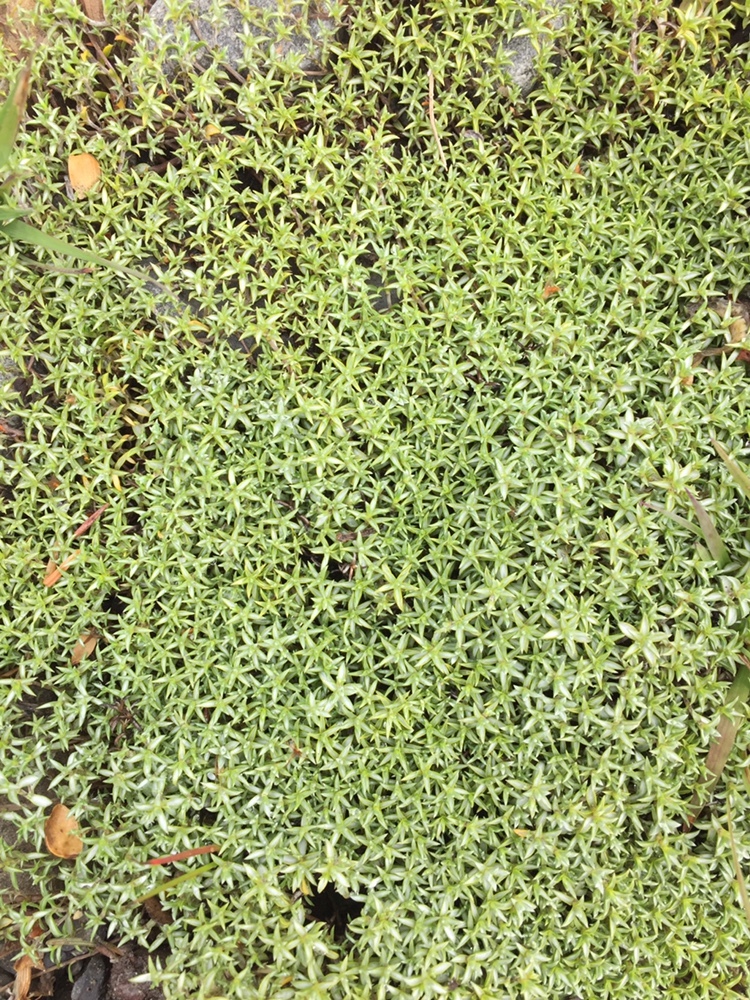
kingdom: Plantae
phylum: Tracheophyta
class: Magnoliopsida
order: Asterales
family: Asteraceae
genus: Raoulia
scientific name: Raoulia tenuicaulis
